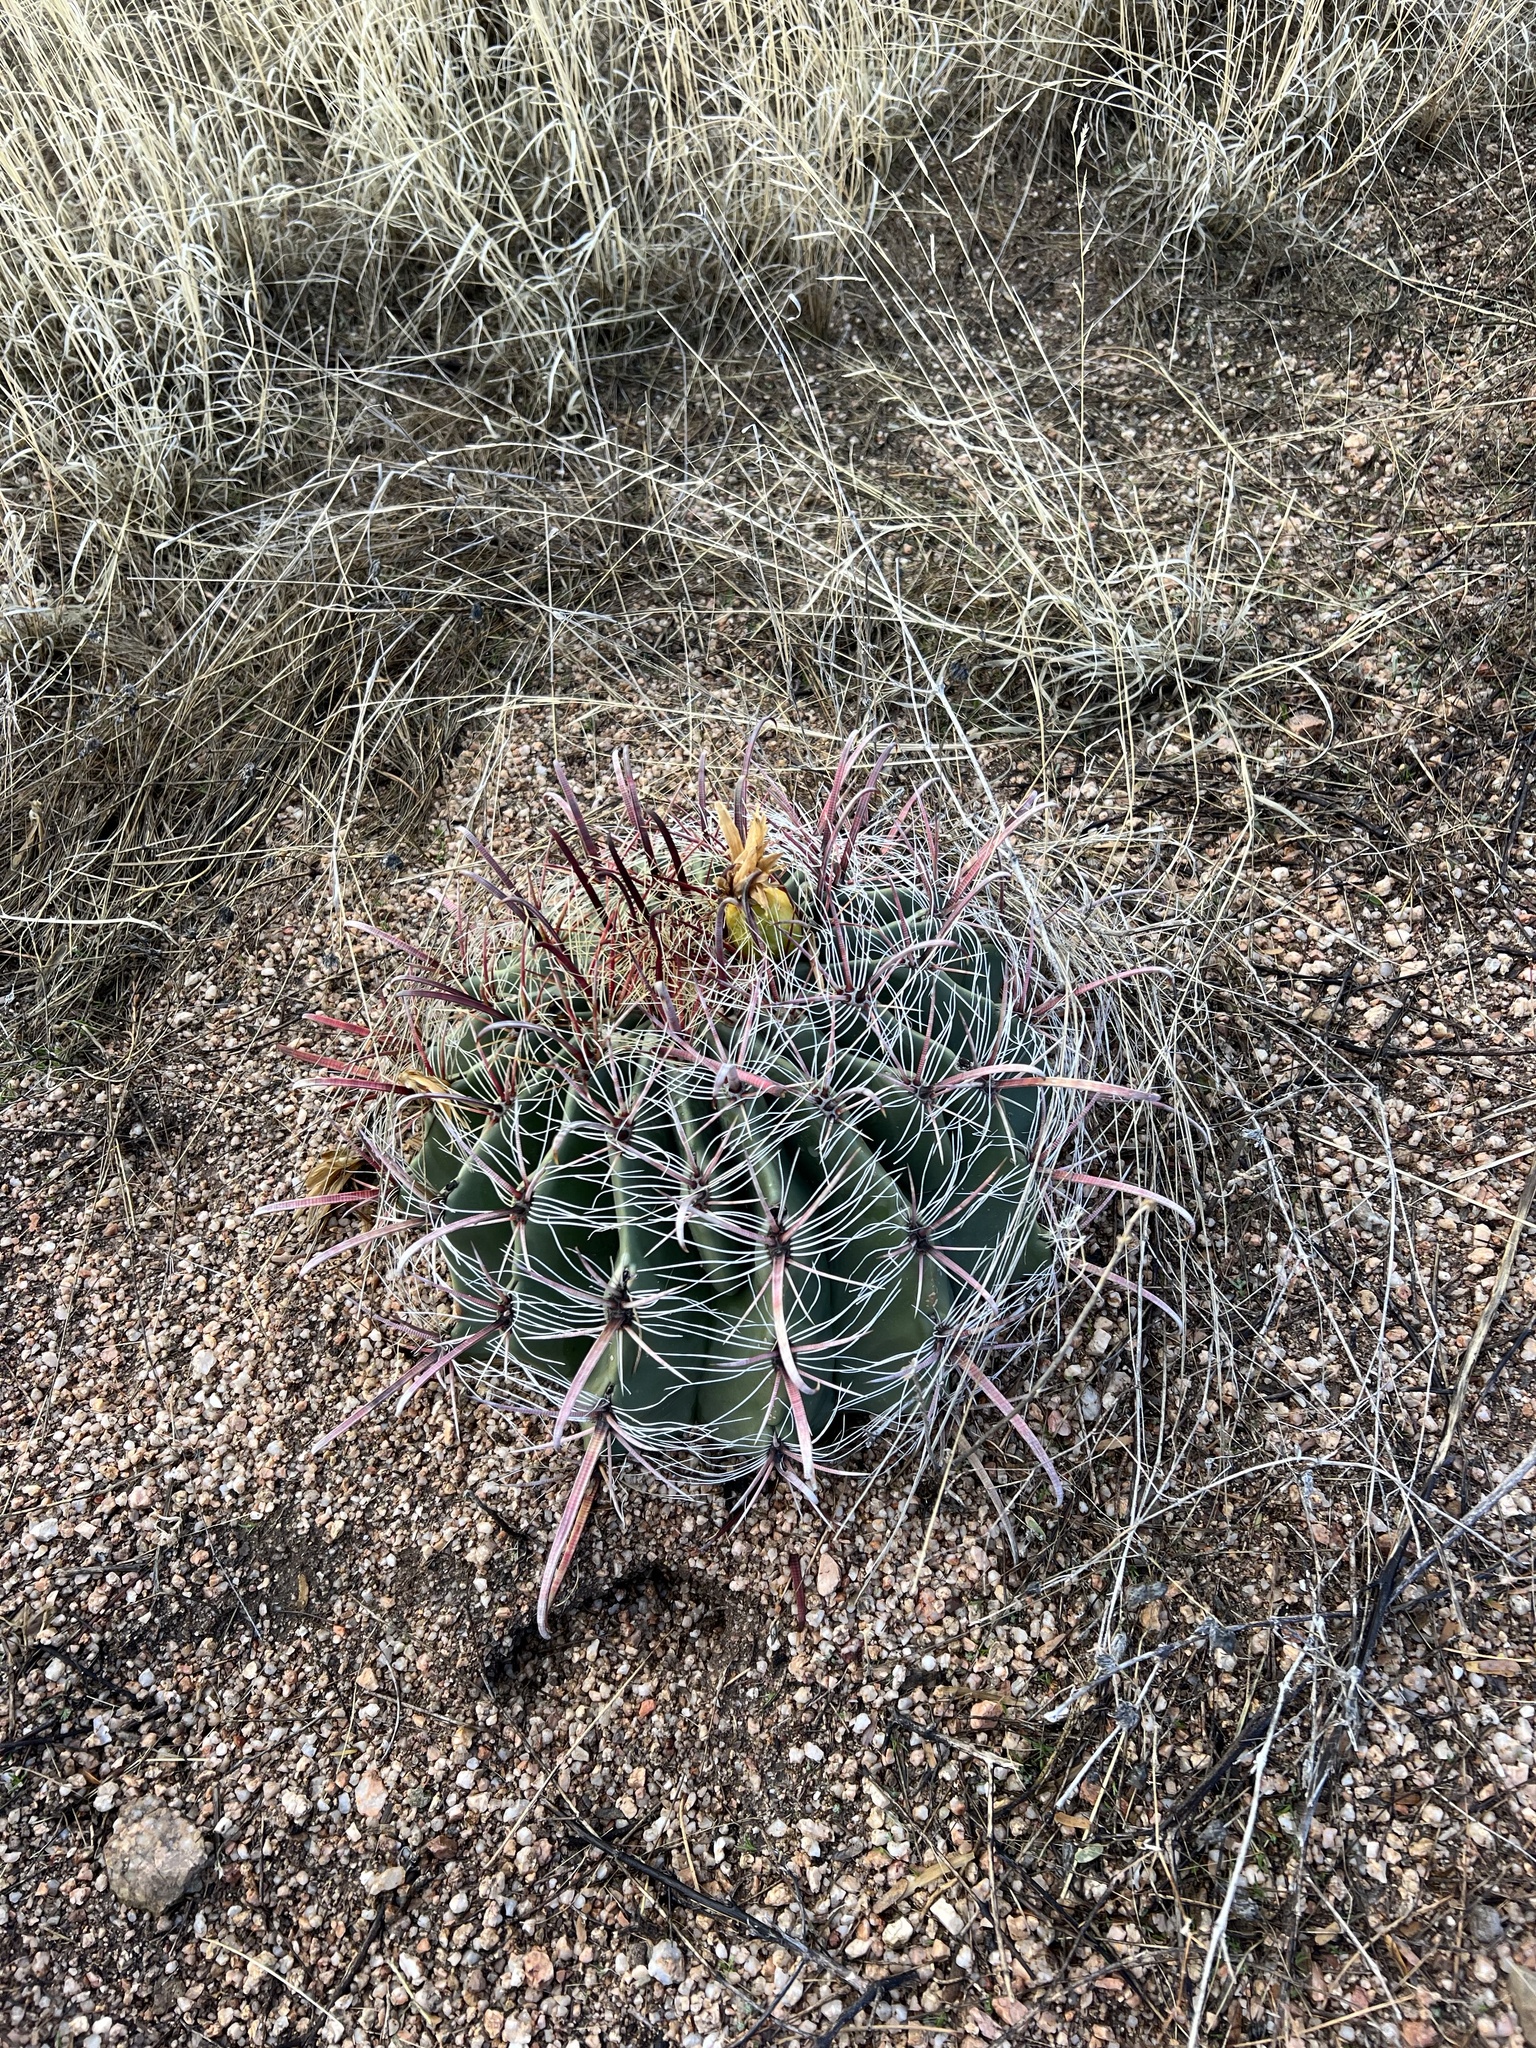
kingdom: Plantae
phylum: Tracheophyta
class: Magnoliopsida
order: Caryophyllales
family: Cactaceae
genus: Ferocactus
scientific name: Ferocactus wislizeni
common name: Candy barrel cactus
